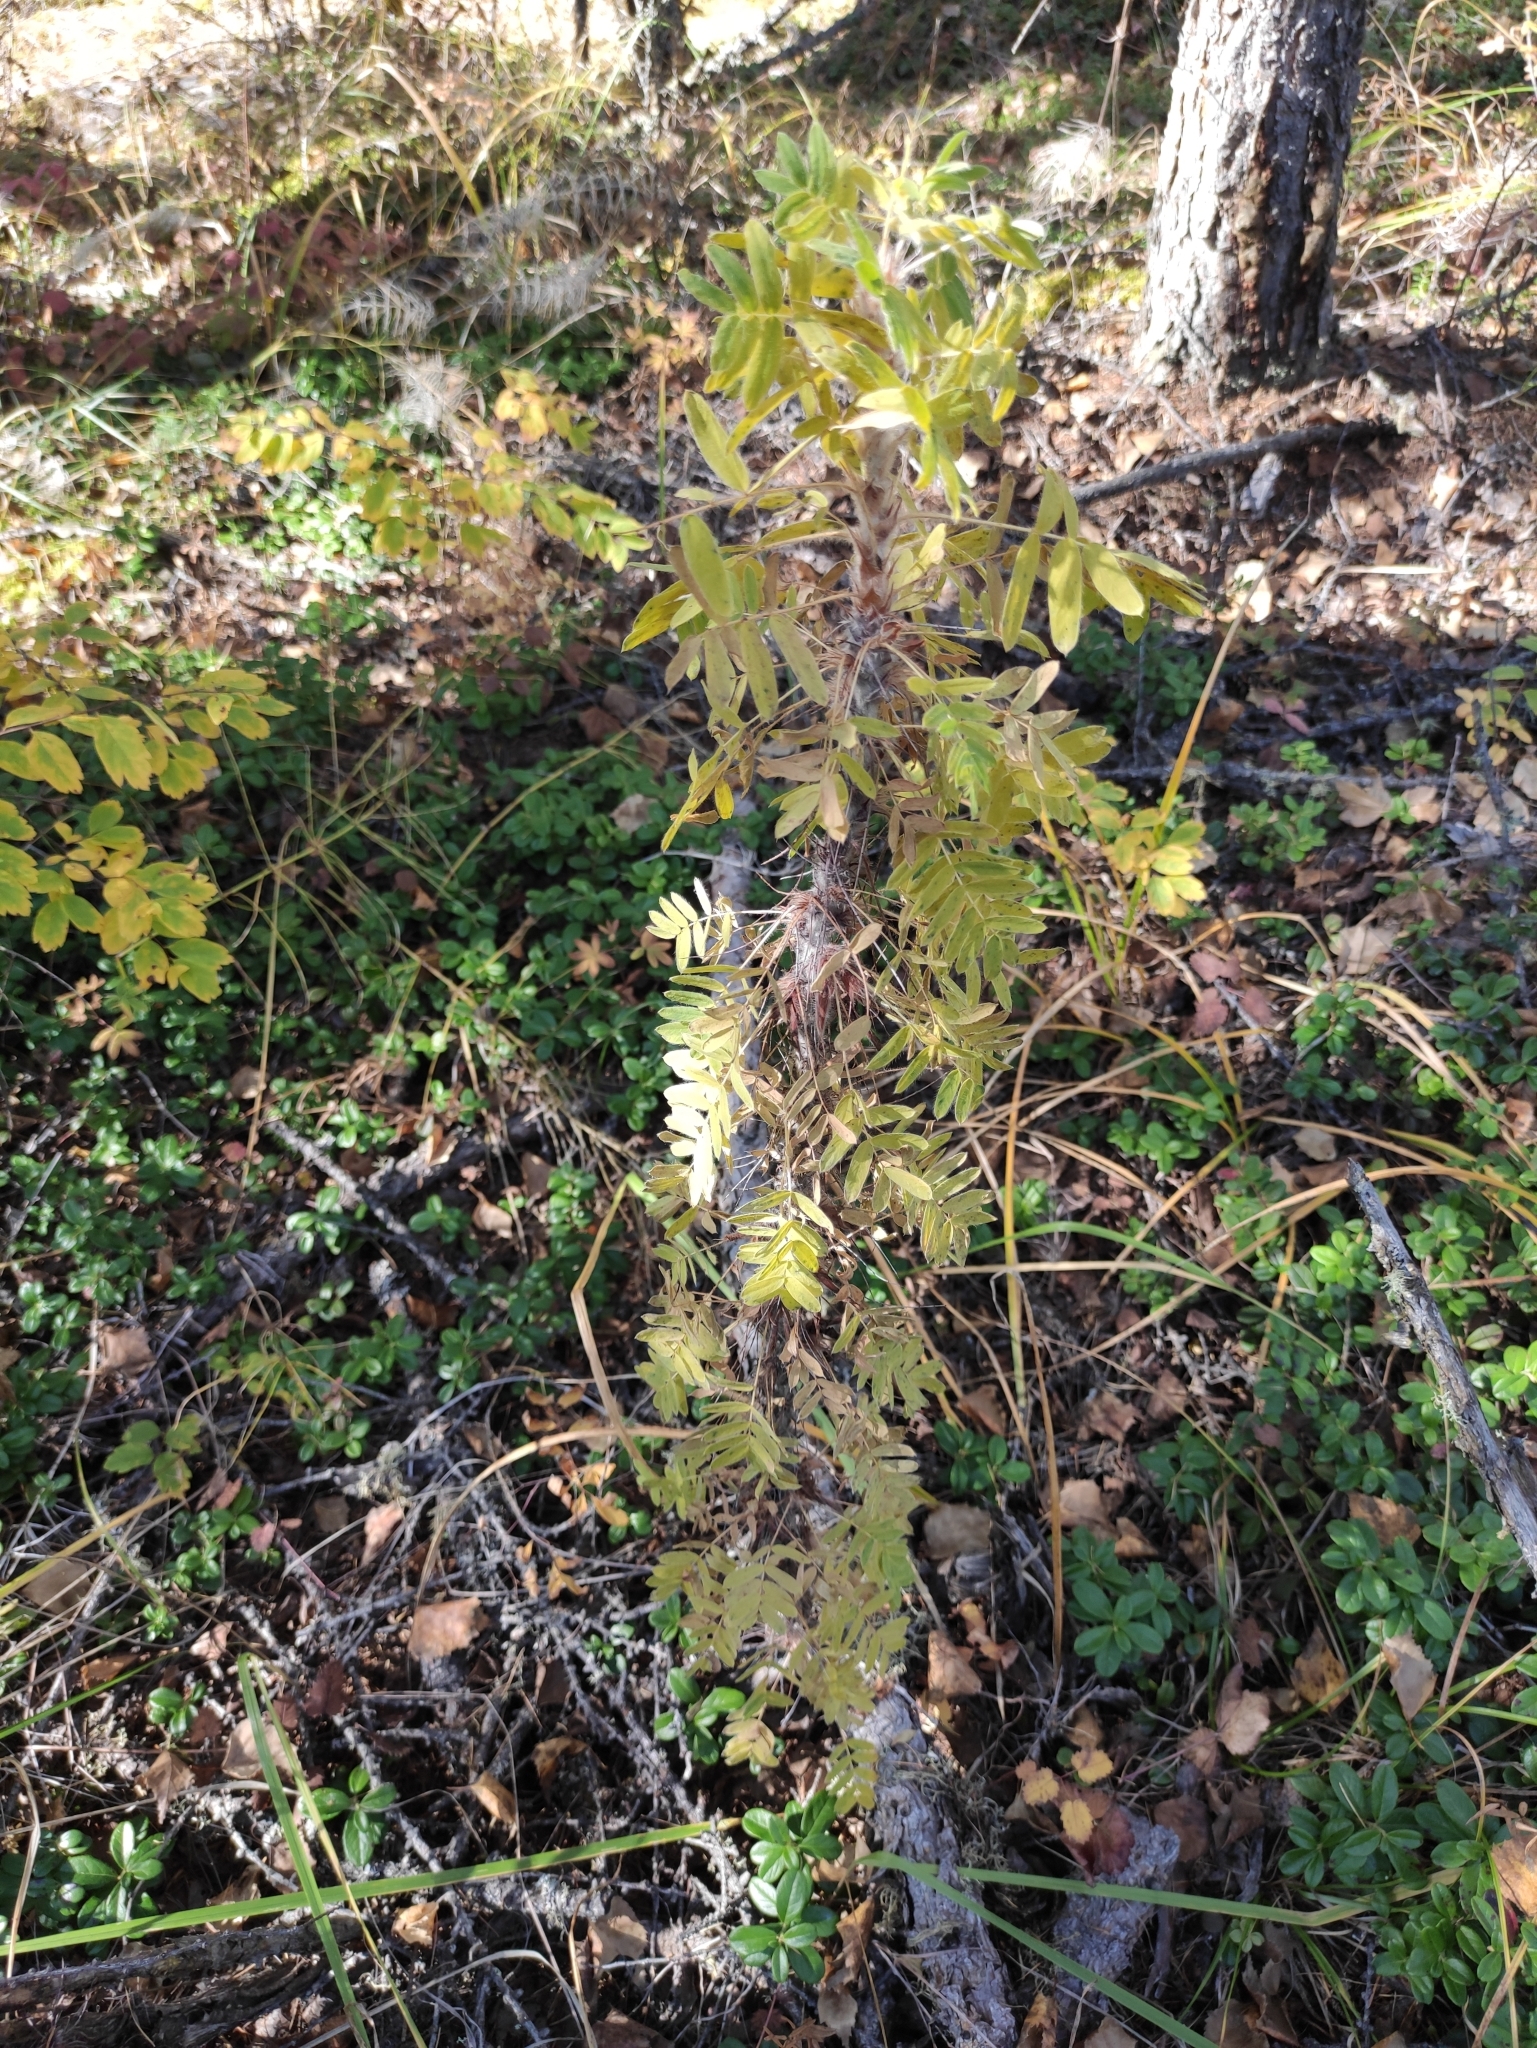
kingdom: Plantae
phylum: Tracheophyta
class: Magnoliopsida
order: Fabales
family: Fabaceae
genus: Caragana
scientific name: Caragana jubata
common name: Shag-spine peashrub
